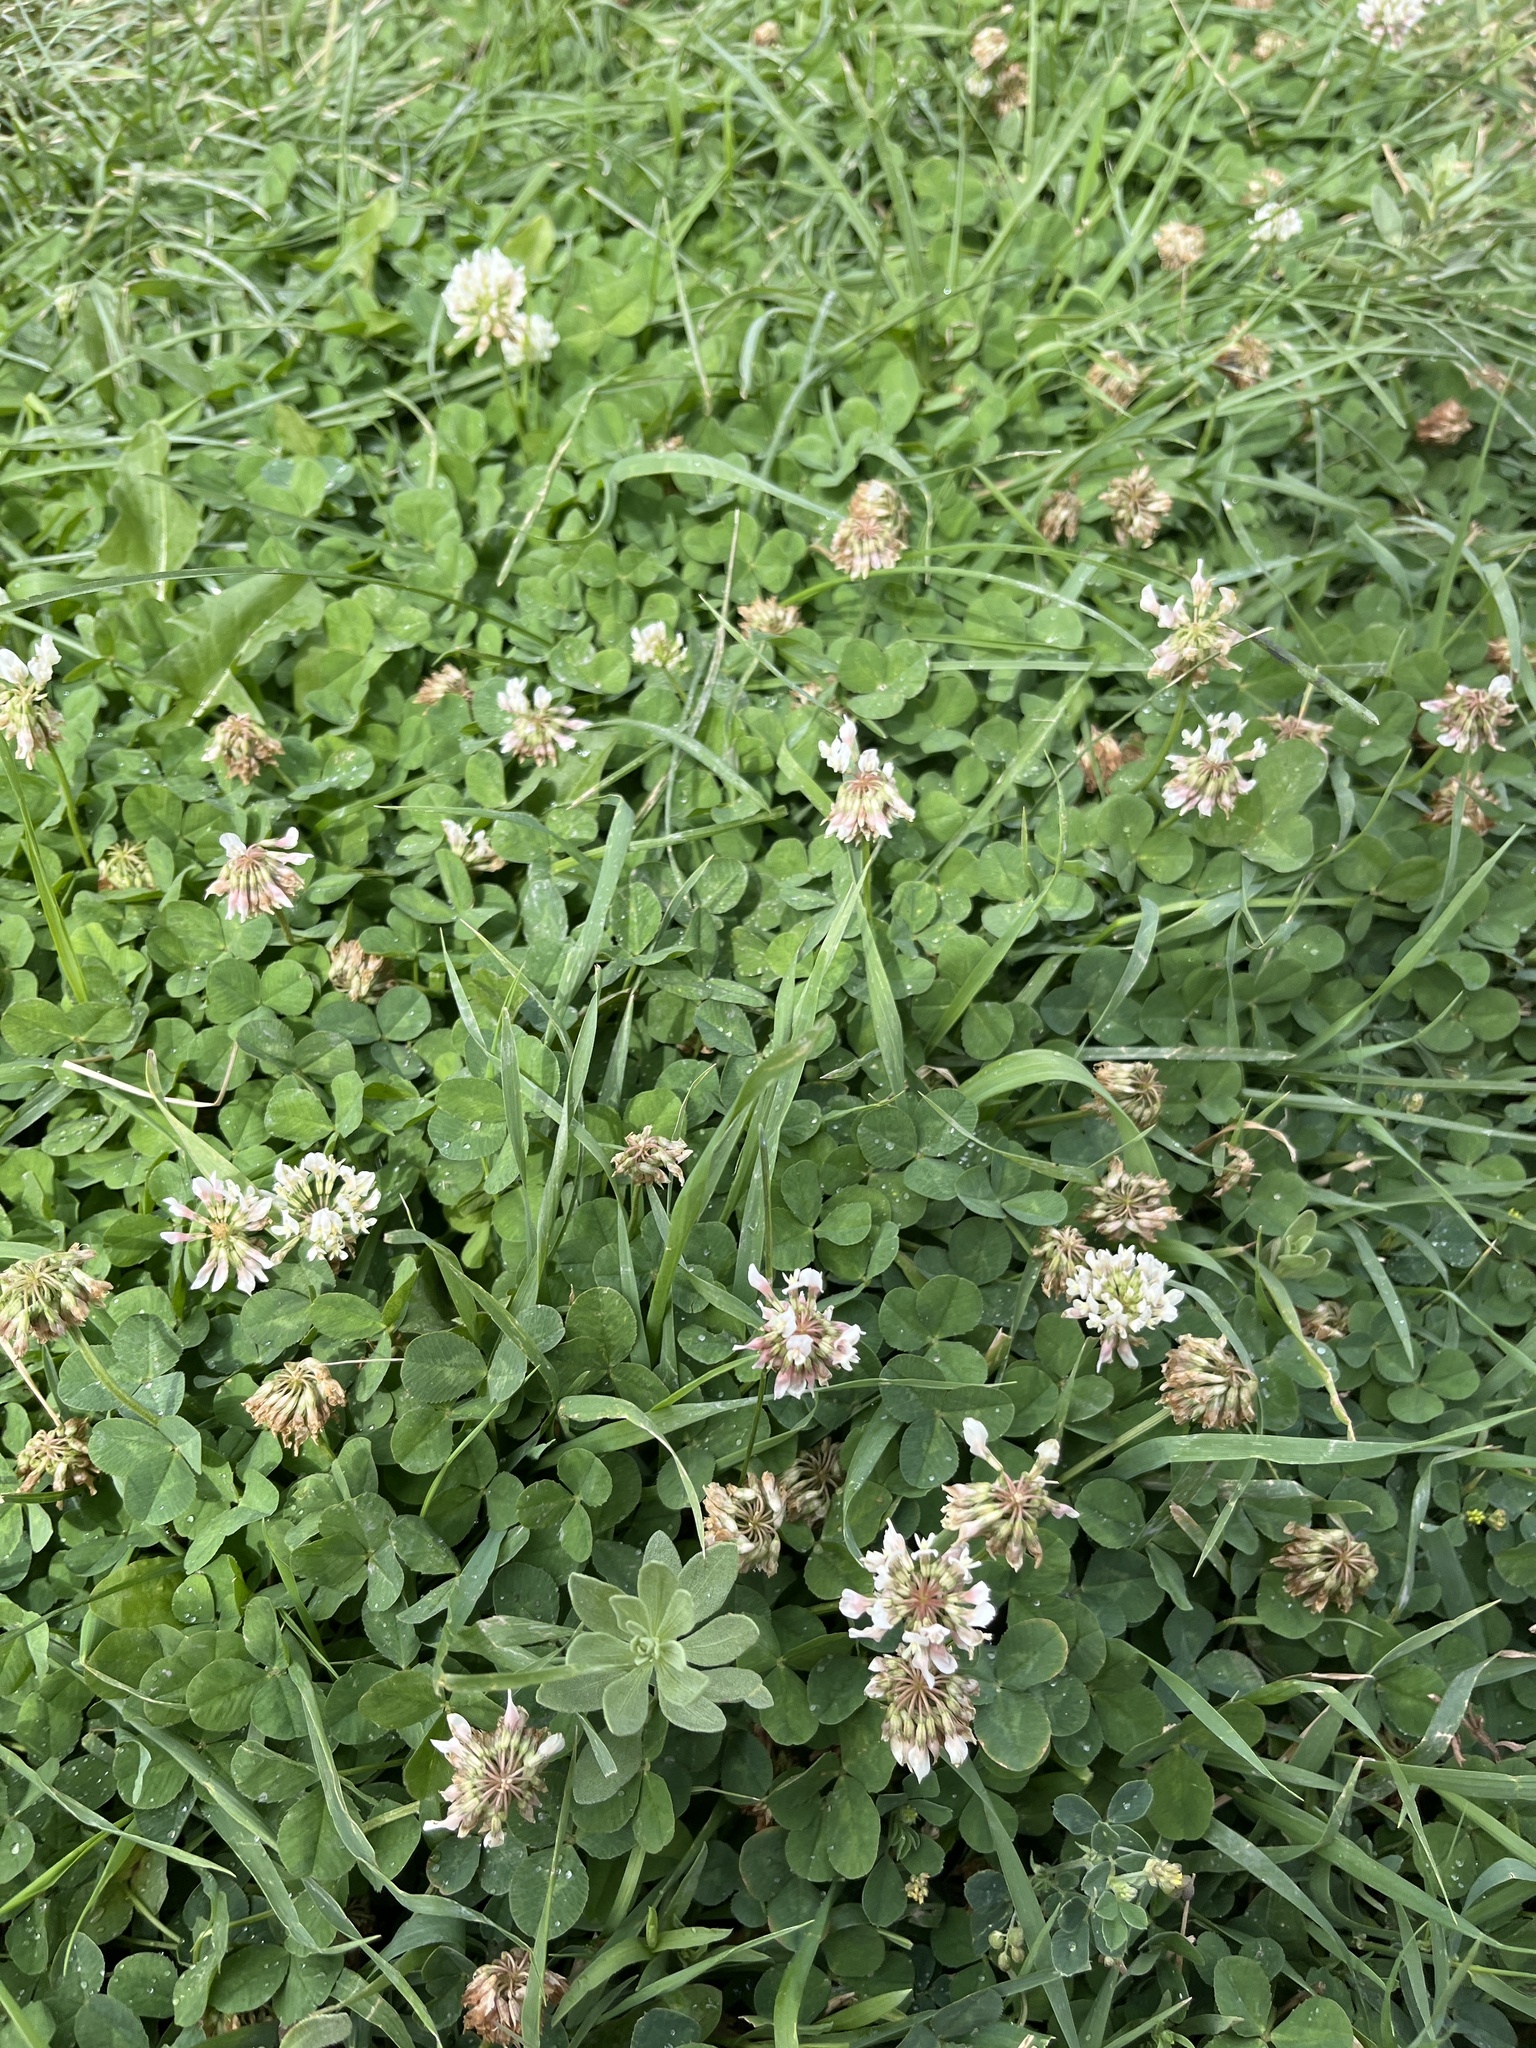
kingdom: Plantae
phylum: Tracheophyta
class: Magnoliopsida
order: Fabales
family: Fabaceae
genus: Trifolium
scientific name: Trifolium repens
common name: White clover
